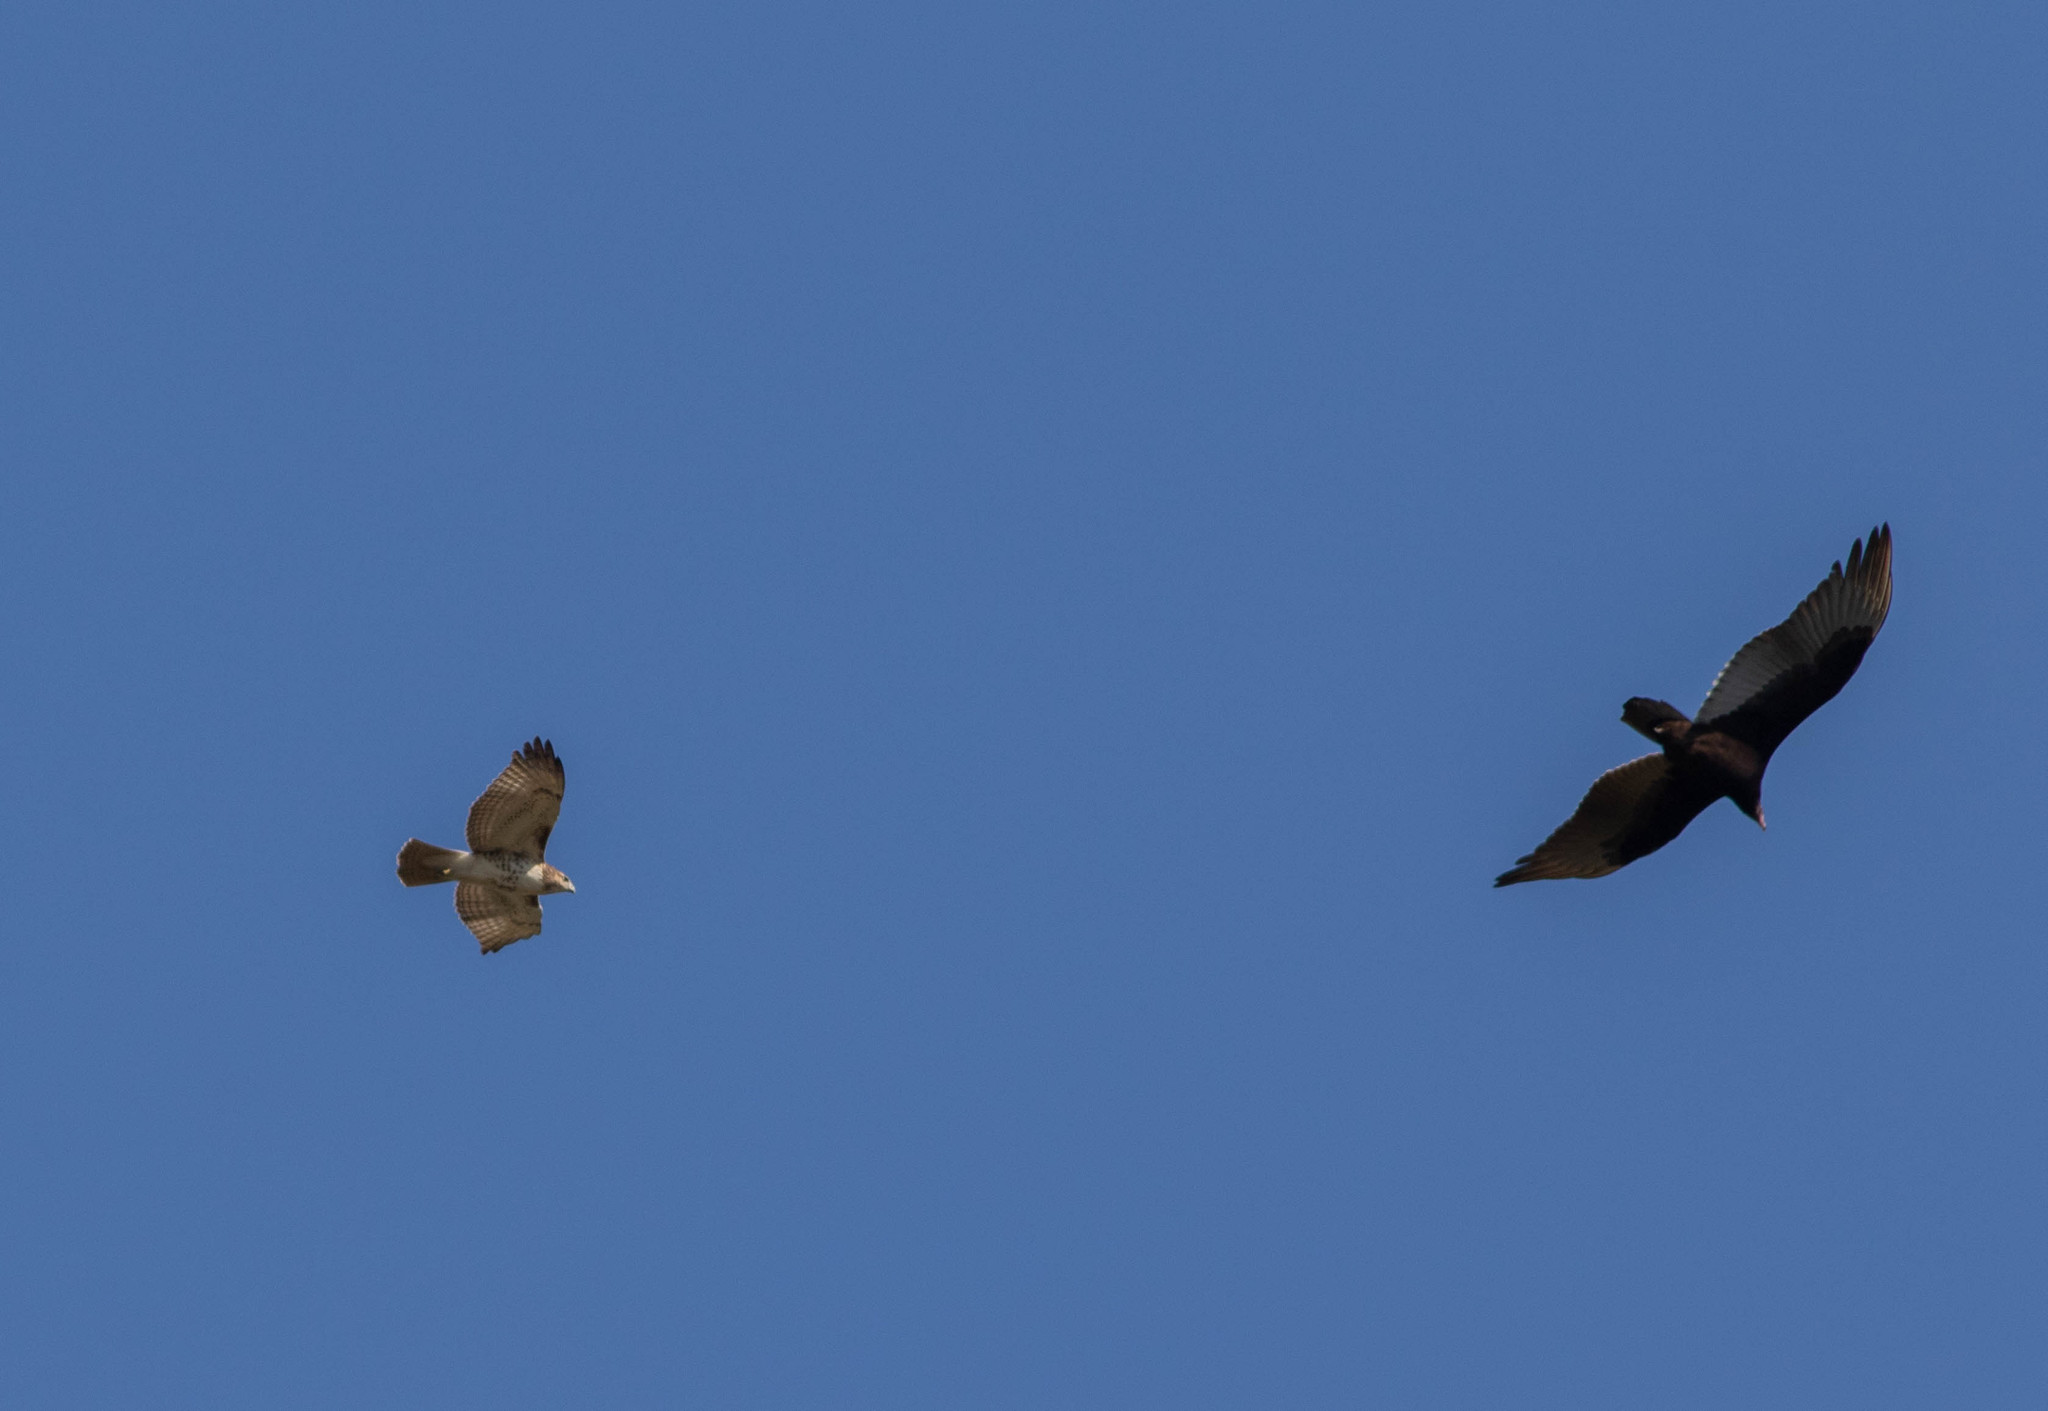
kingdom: Animalia
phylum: Chordata
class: Aves
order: Accipitriformes
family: Cathartidae
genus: Cathartes
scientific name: Cathartes aura
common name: Turkey vulture
